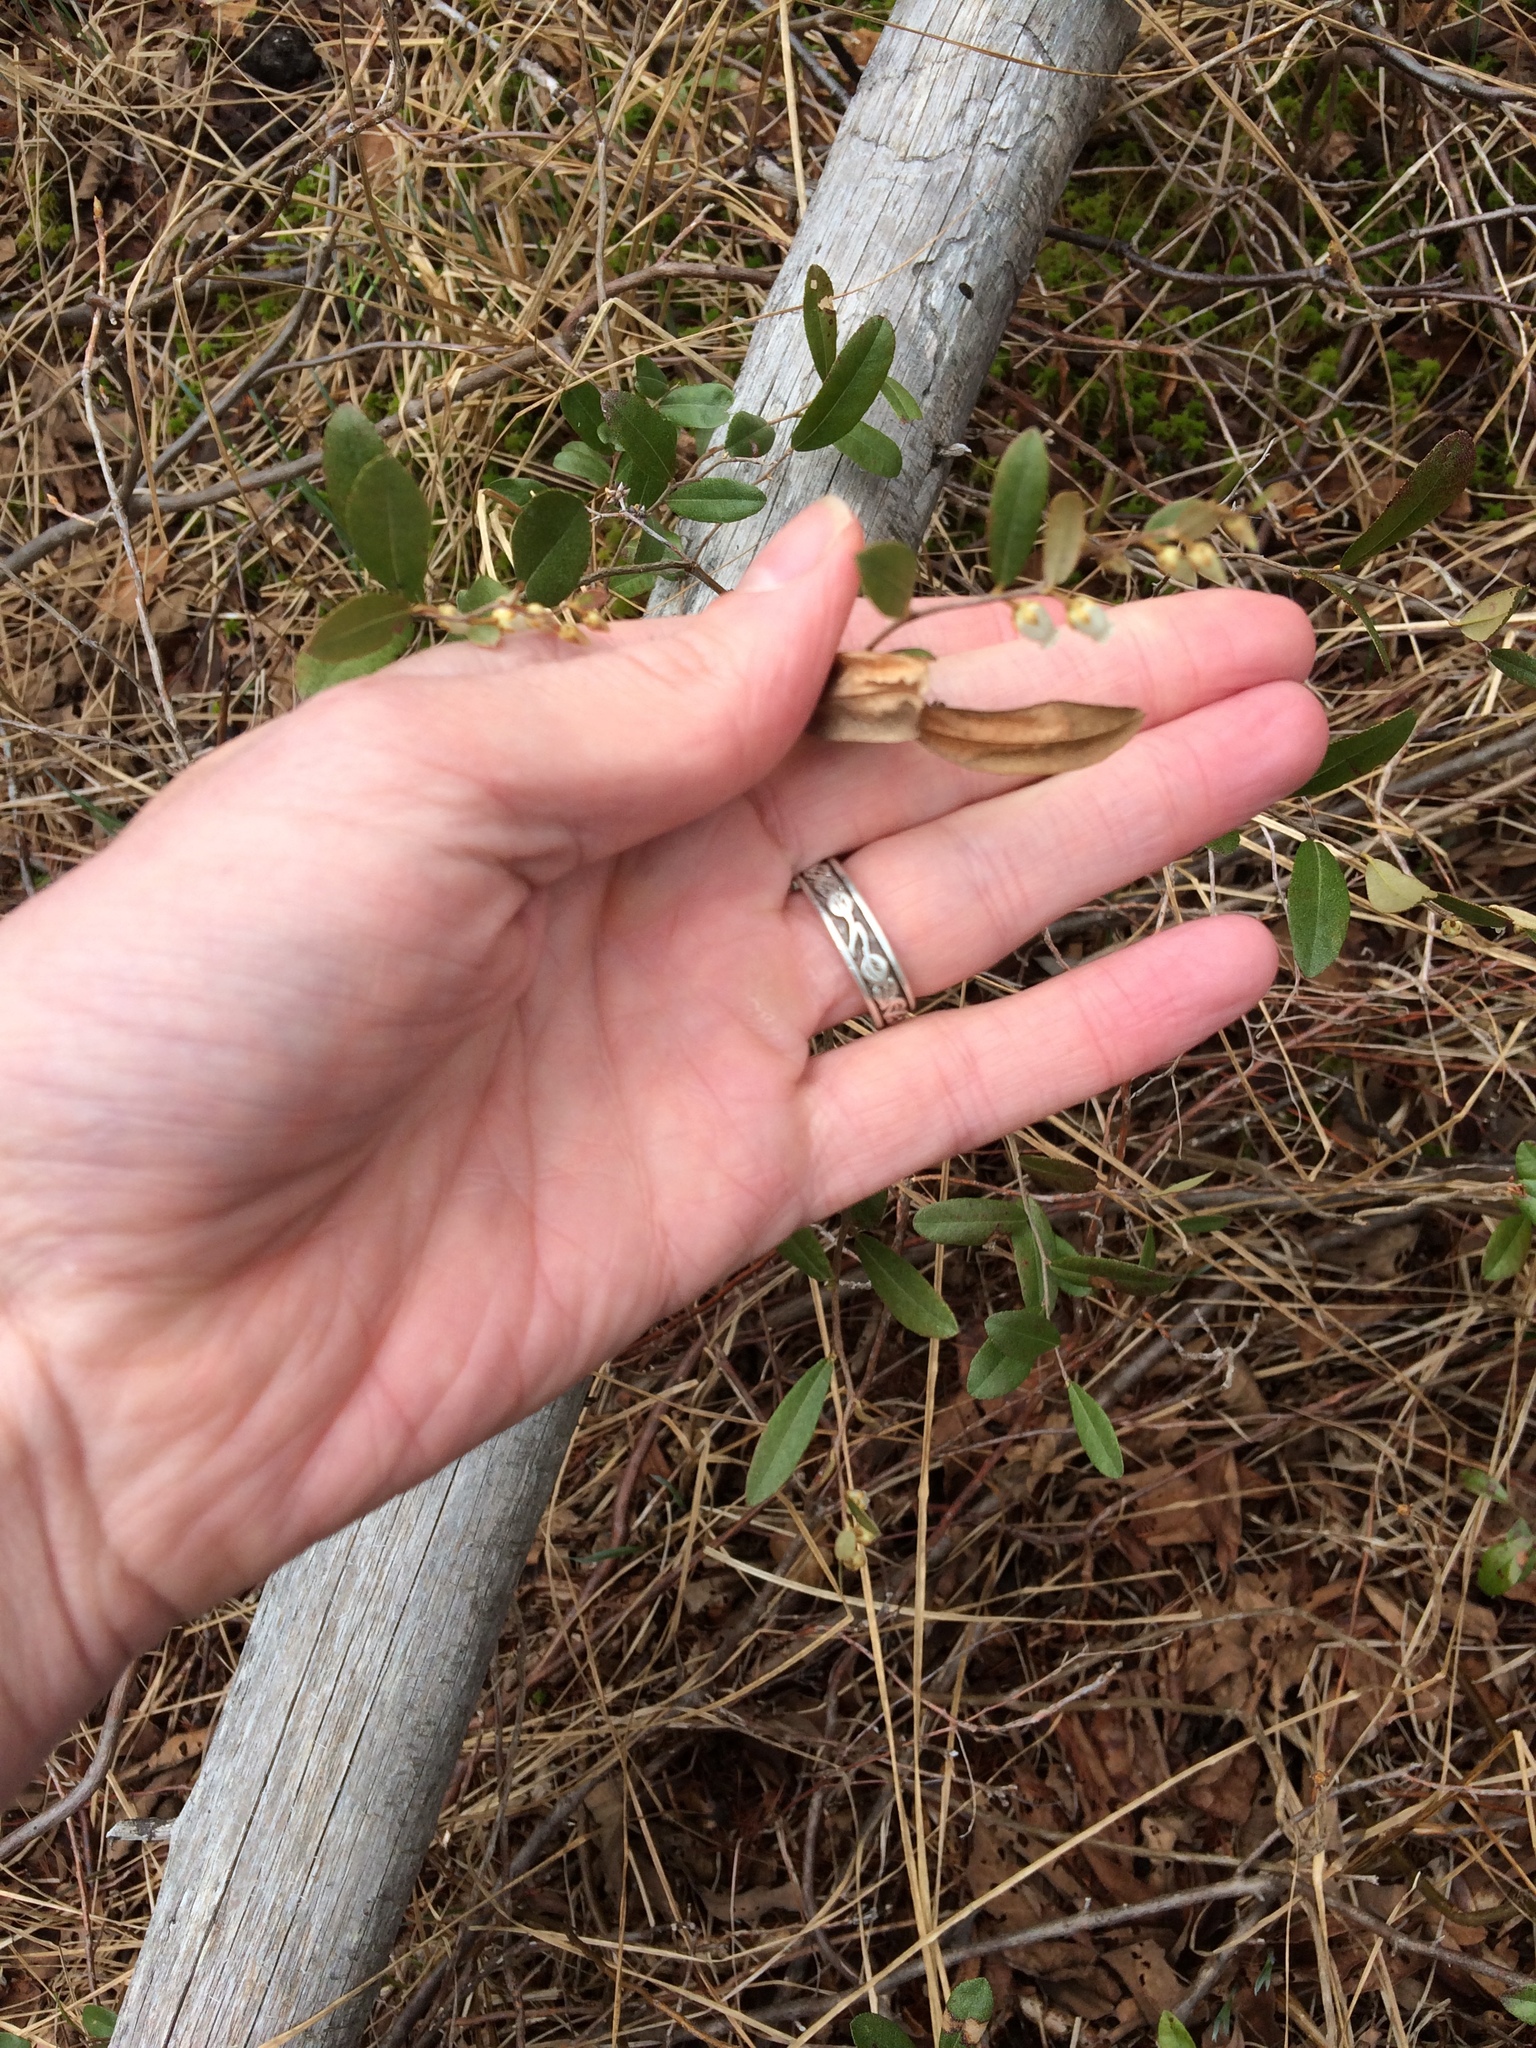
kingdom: Plantae
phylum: Tracheophyta
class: Magnoliopsida
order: Ericales
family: Ericaceae
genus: Chamaedaphne
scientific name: Chamaedaphne calyculata
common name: Leatherleaf
